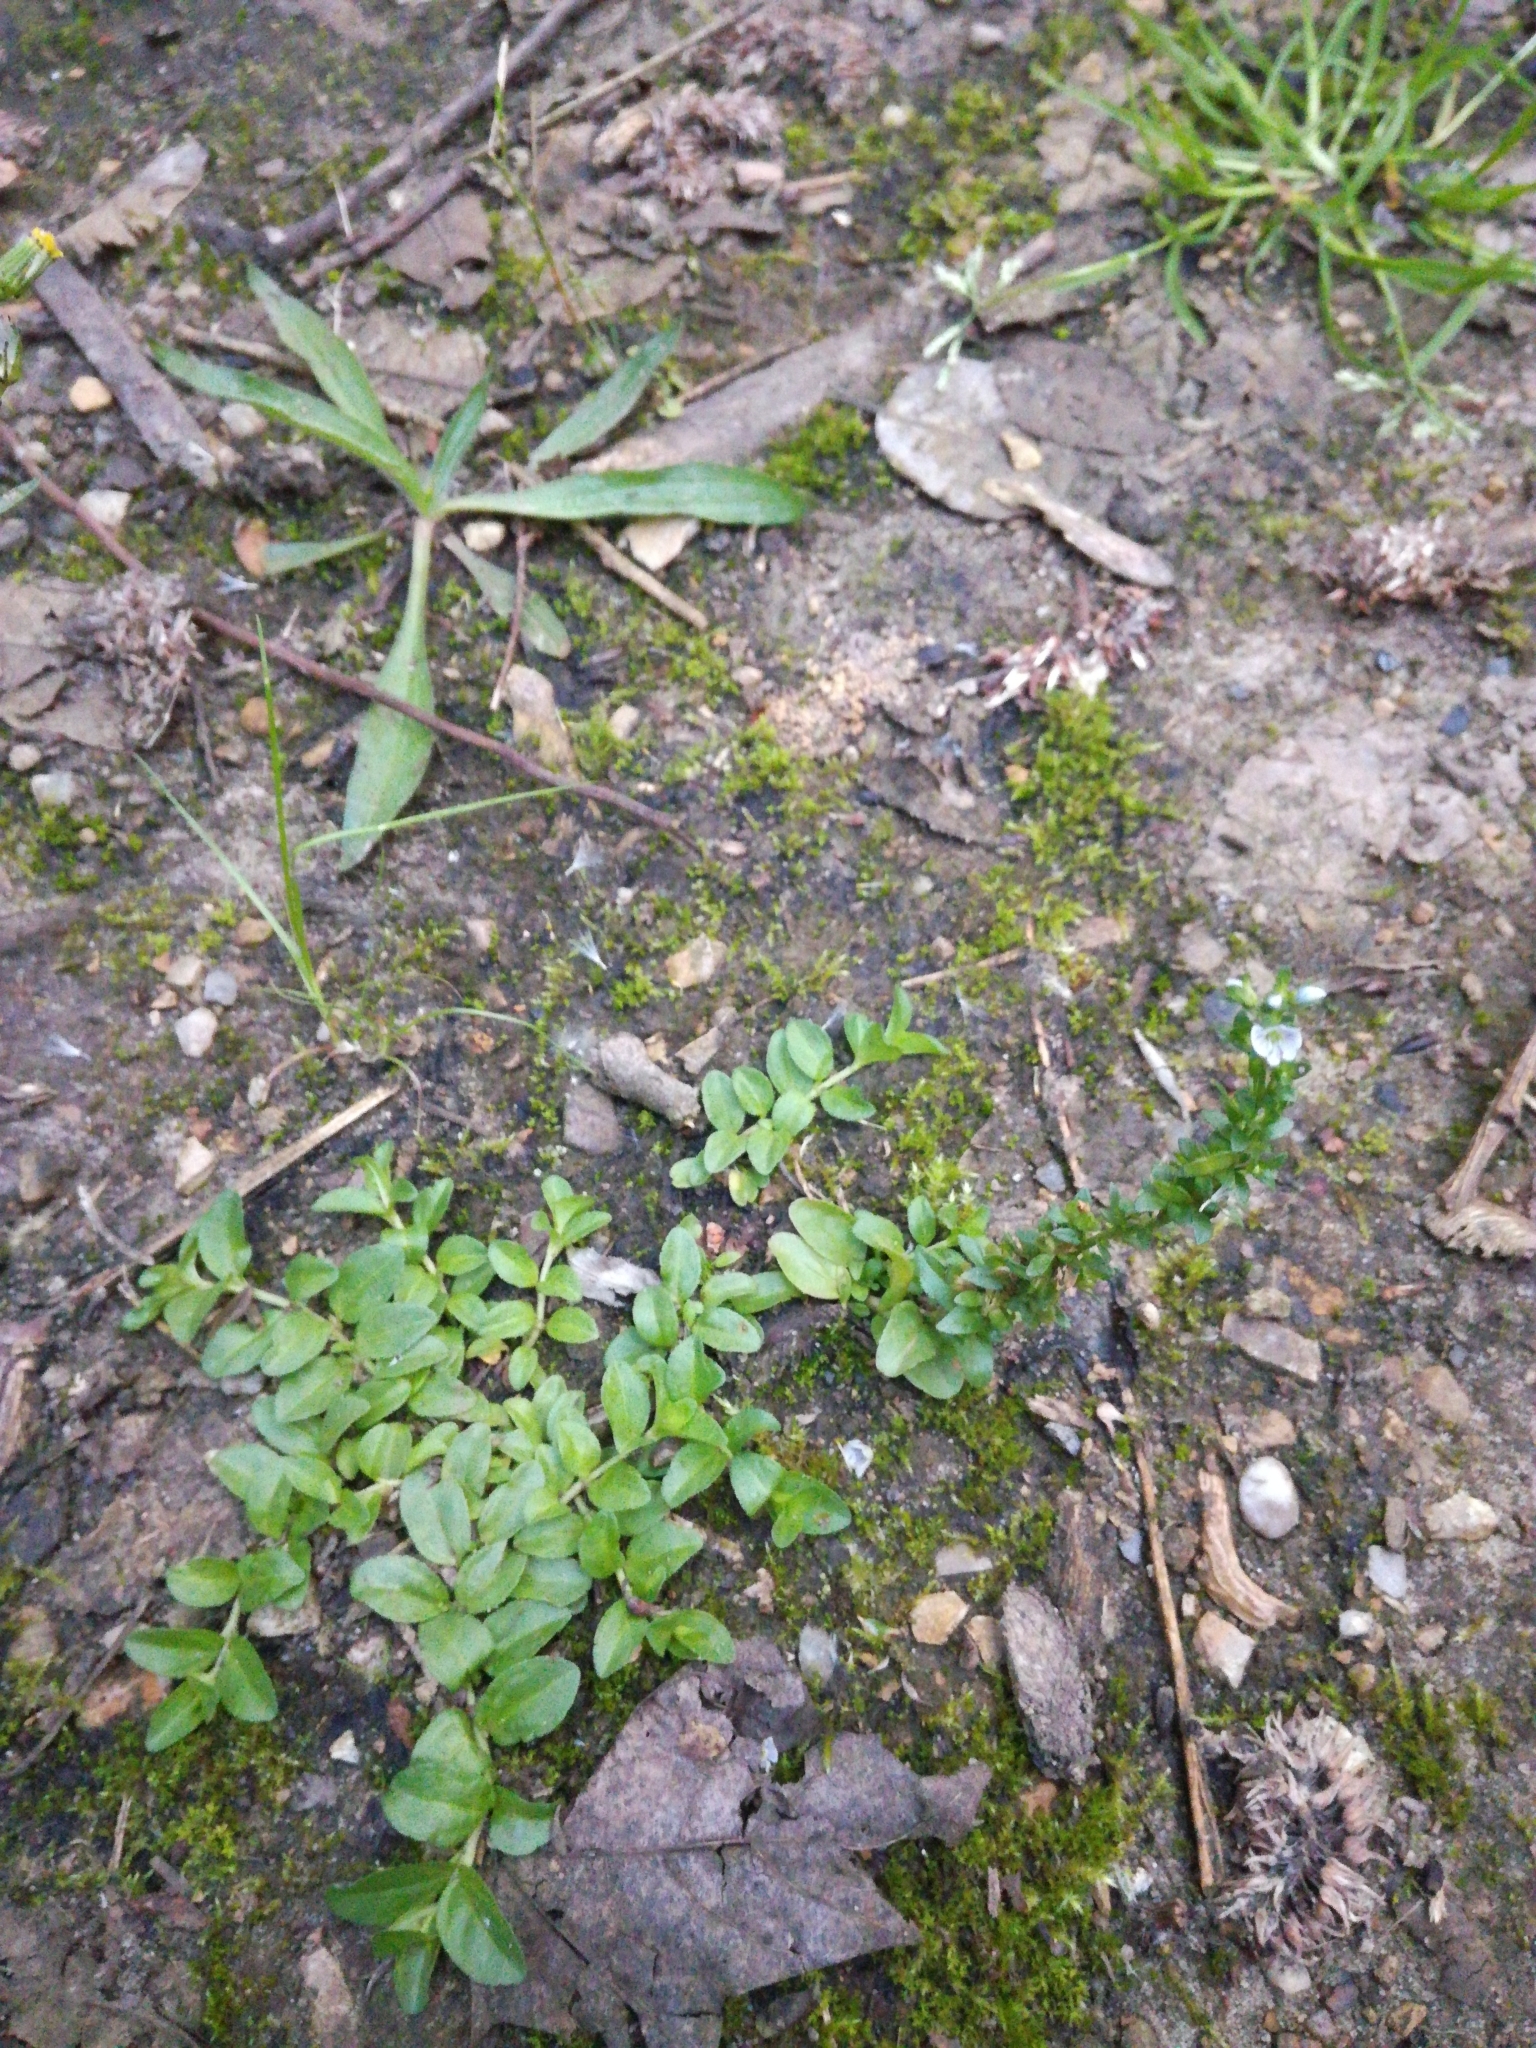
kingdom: Plantae
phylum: Tracheophyta
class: Magnoliopsida
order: Lamiales
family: Plantaginaceae
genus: Veronica
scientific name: Veronica serpyllifolia
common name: Thyme-leaved speedwell
